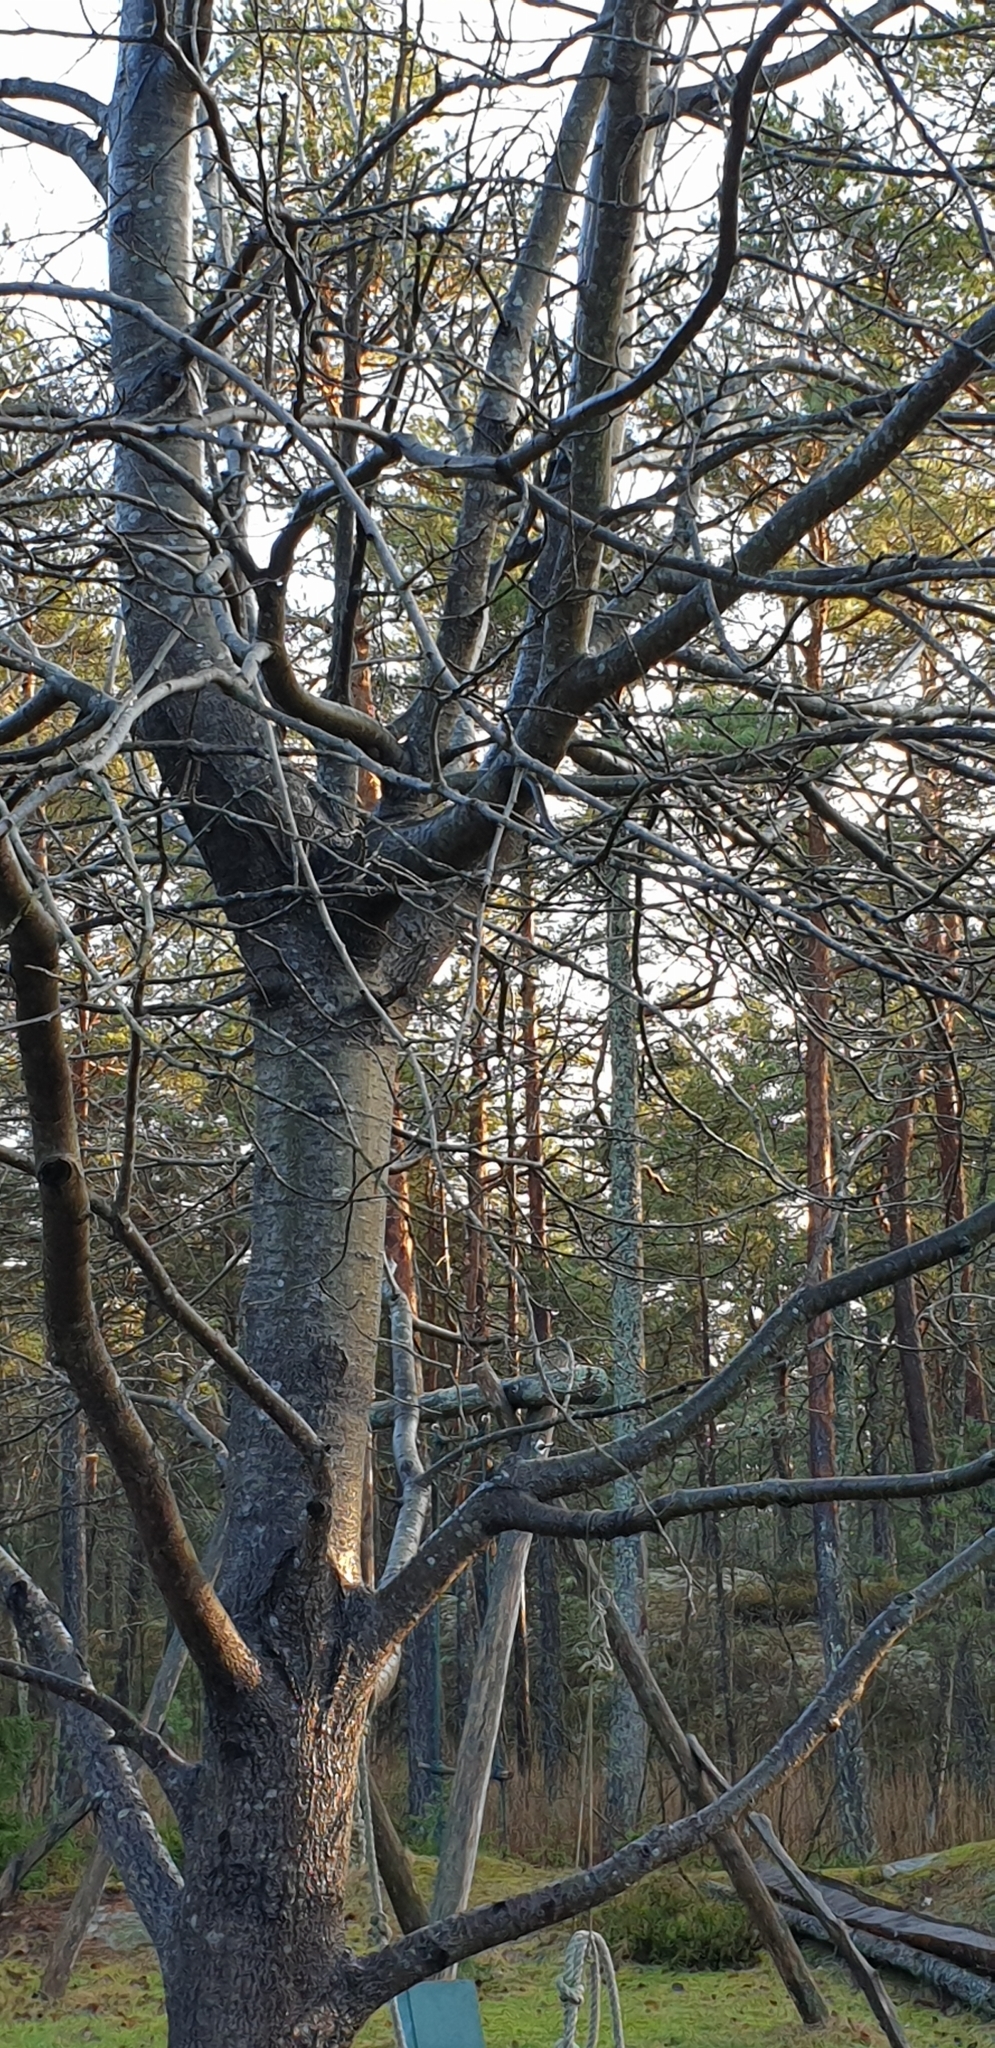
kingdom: Plantae
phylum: Tracheophyta
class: Magnoliopsida
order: Malpighiales
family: Salicaceae
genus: Populus
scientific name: Populus tremula
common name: European aspen
